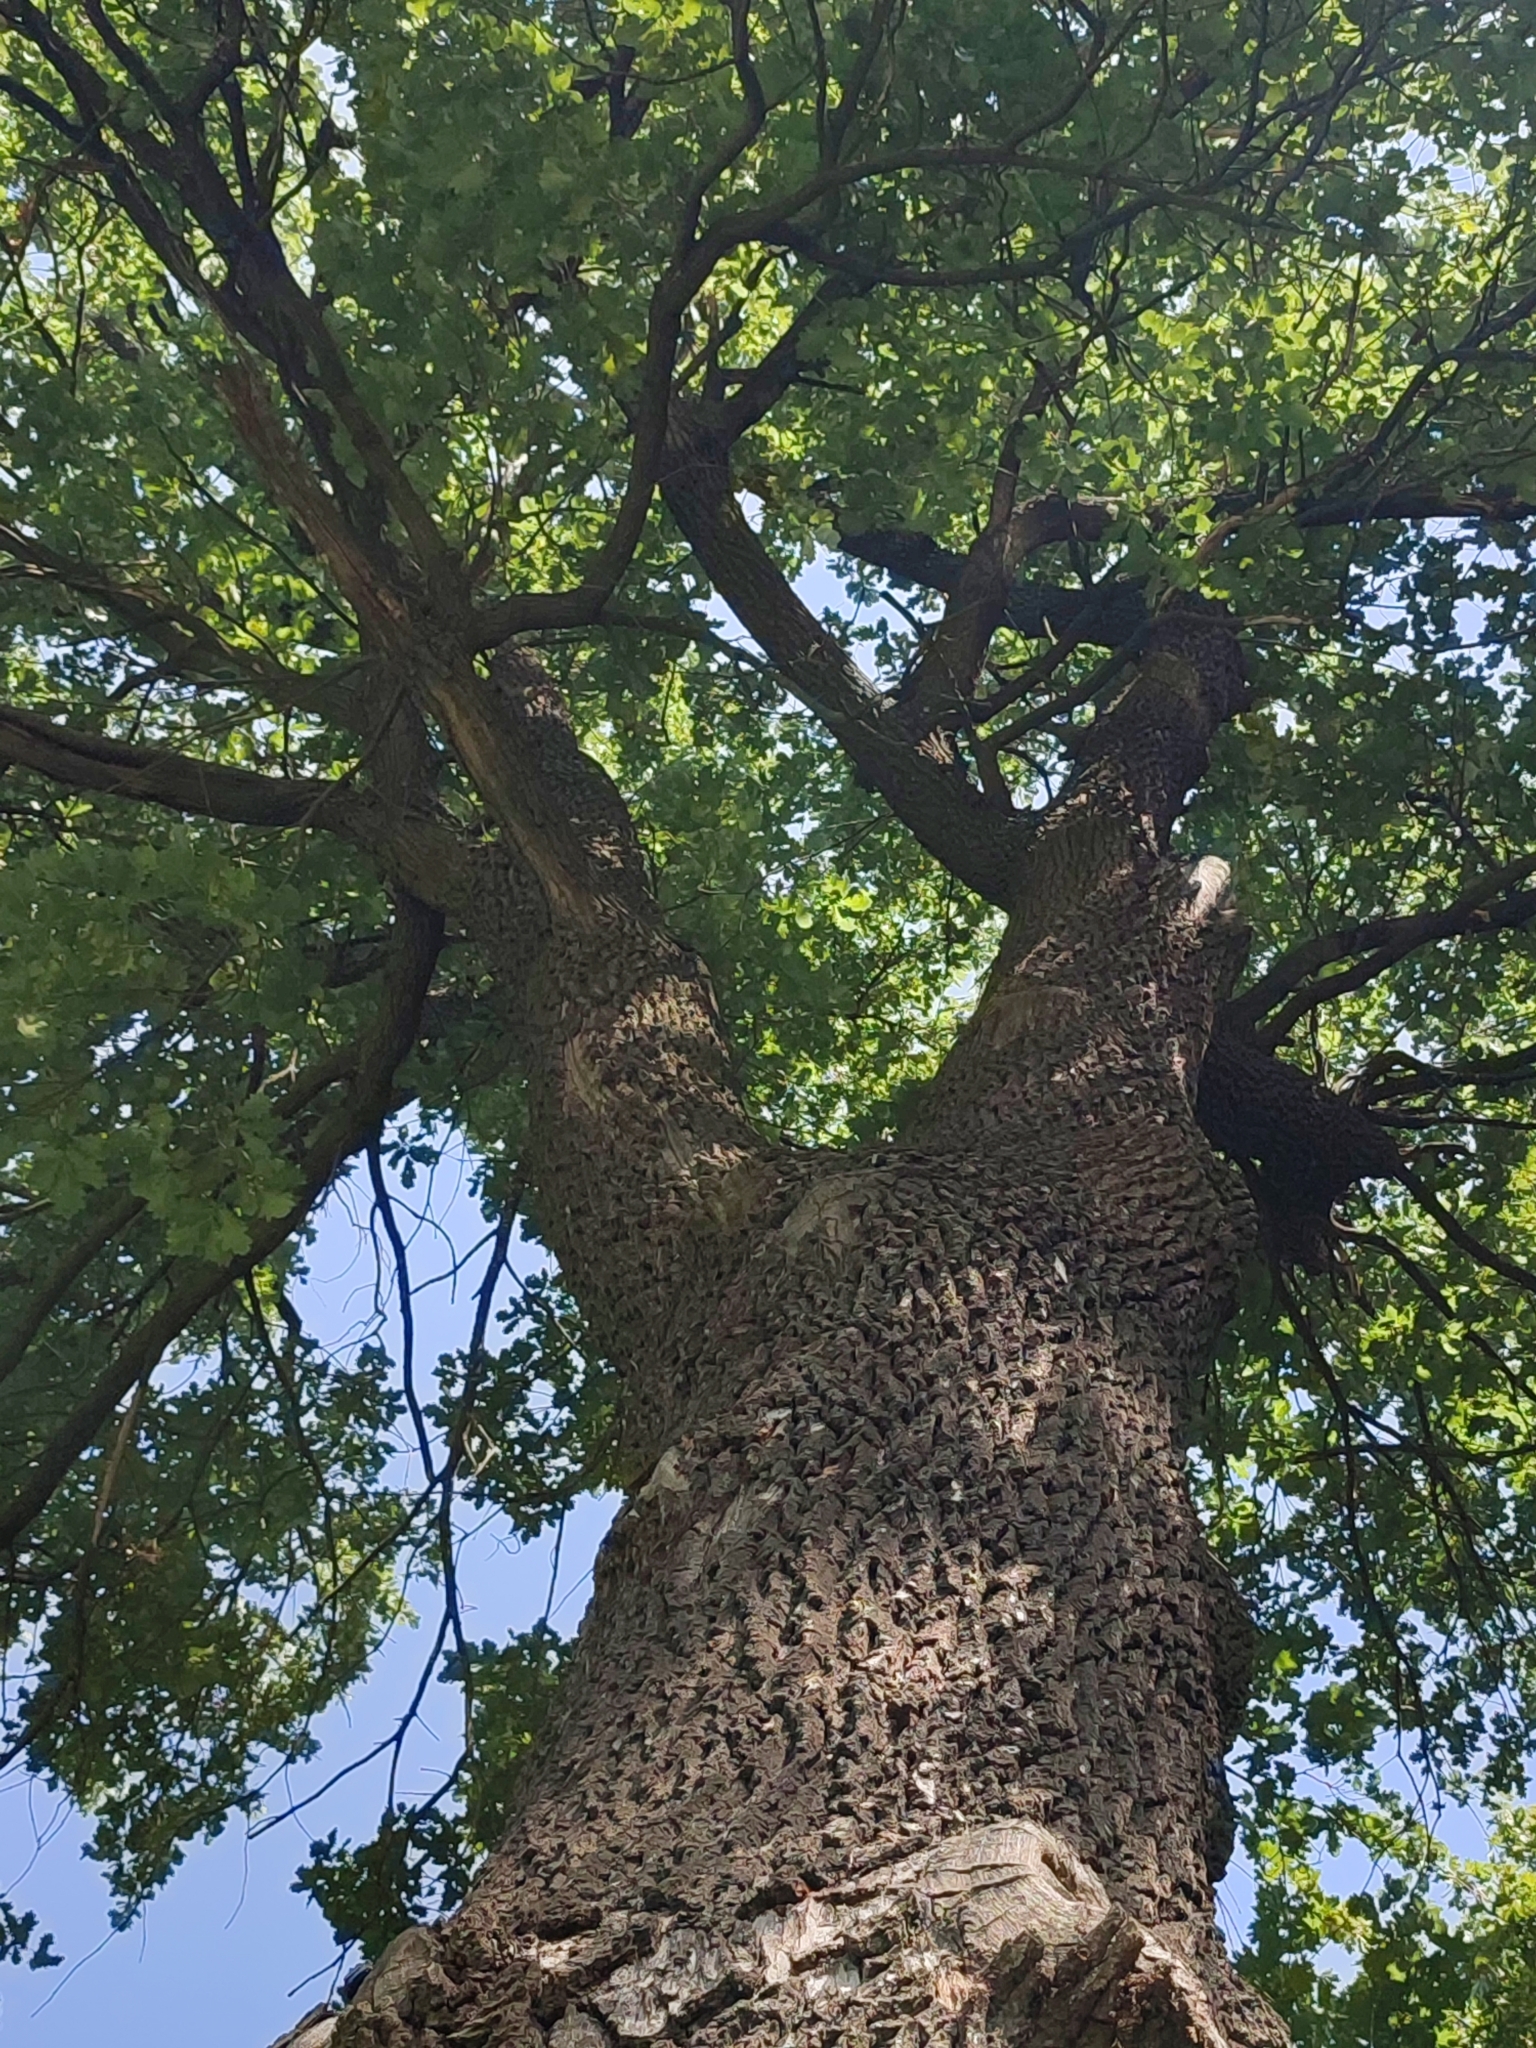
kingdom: Plantae
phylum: Tracheophyta
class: Magnoliopsida
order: Fagales
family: Fagaceae
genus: Quercus
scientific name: Quercus robur
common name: Pedunculate oak
